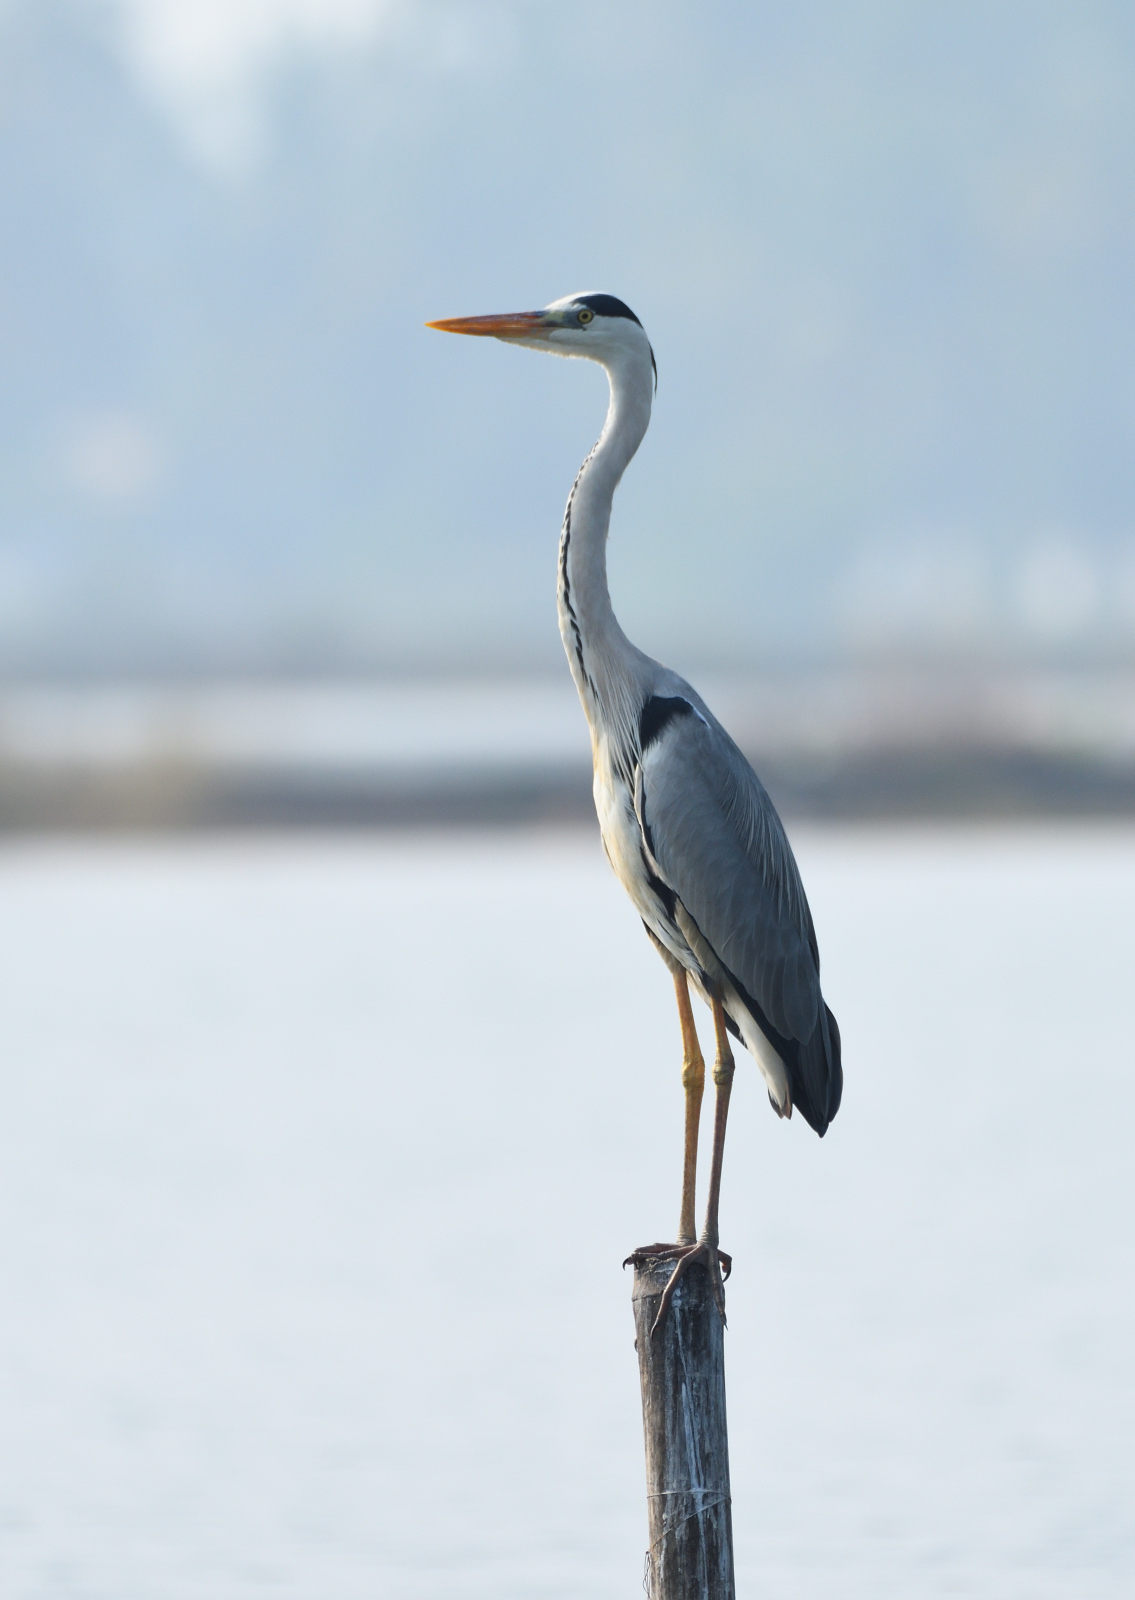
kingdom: Animalia
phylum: Chordata
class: Aves
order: Pelecaniformes
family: Ardeidae
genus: Ardea
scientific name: Ardea cinerea
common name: Grey heron
